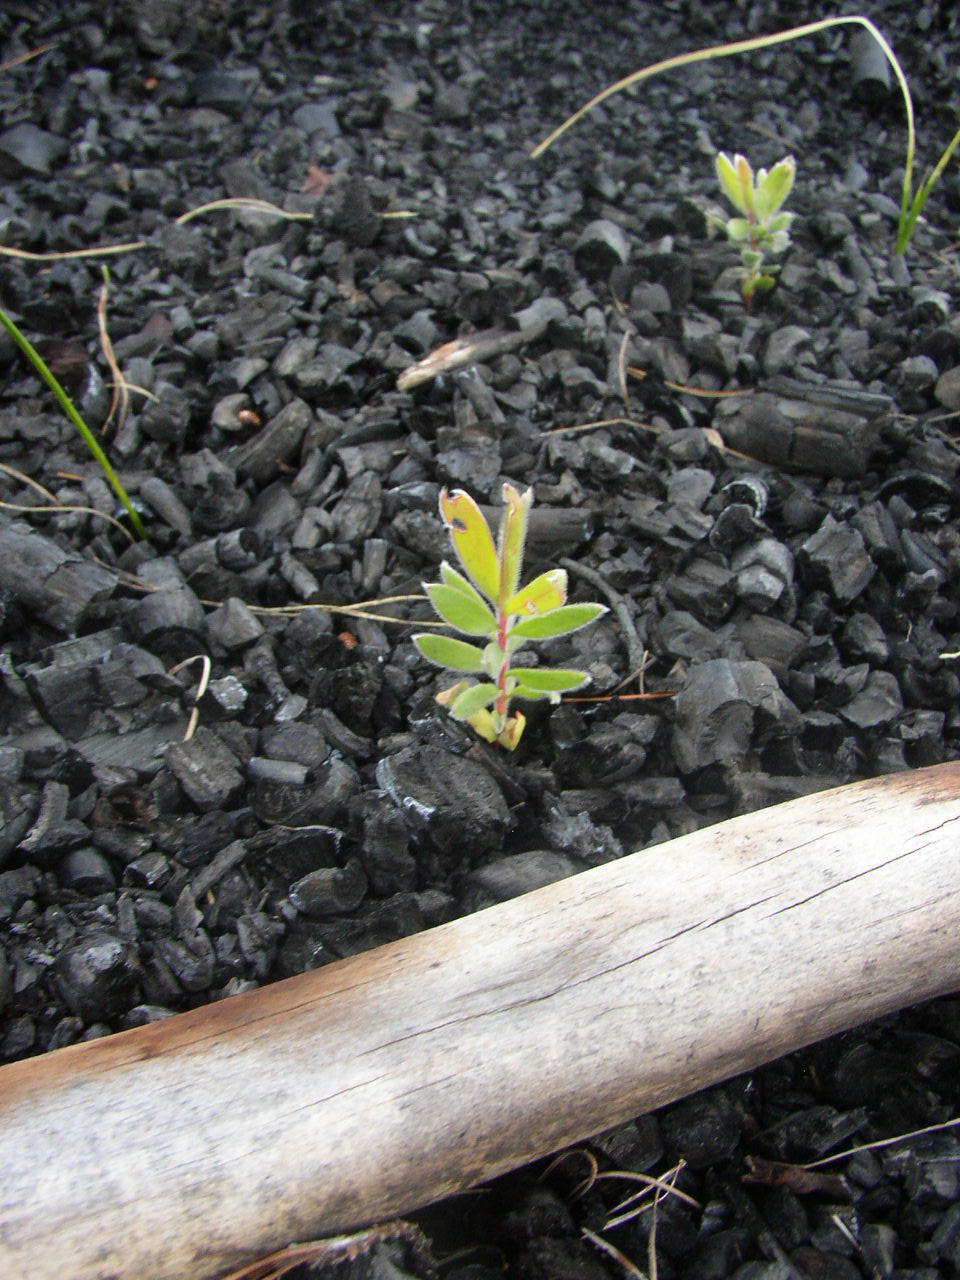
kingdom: Plantae
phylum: Tracheophyta
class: Magnoliopsida
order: Proteales
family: Proteaceae
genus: Leucadendron
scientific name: Leucadendron laureolum
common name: Golden sunshinebush
